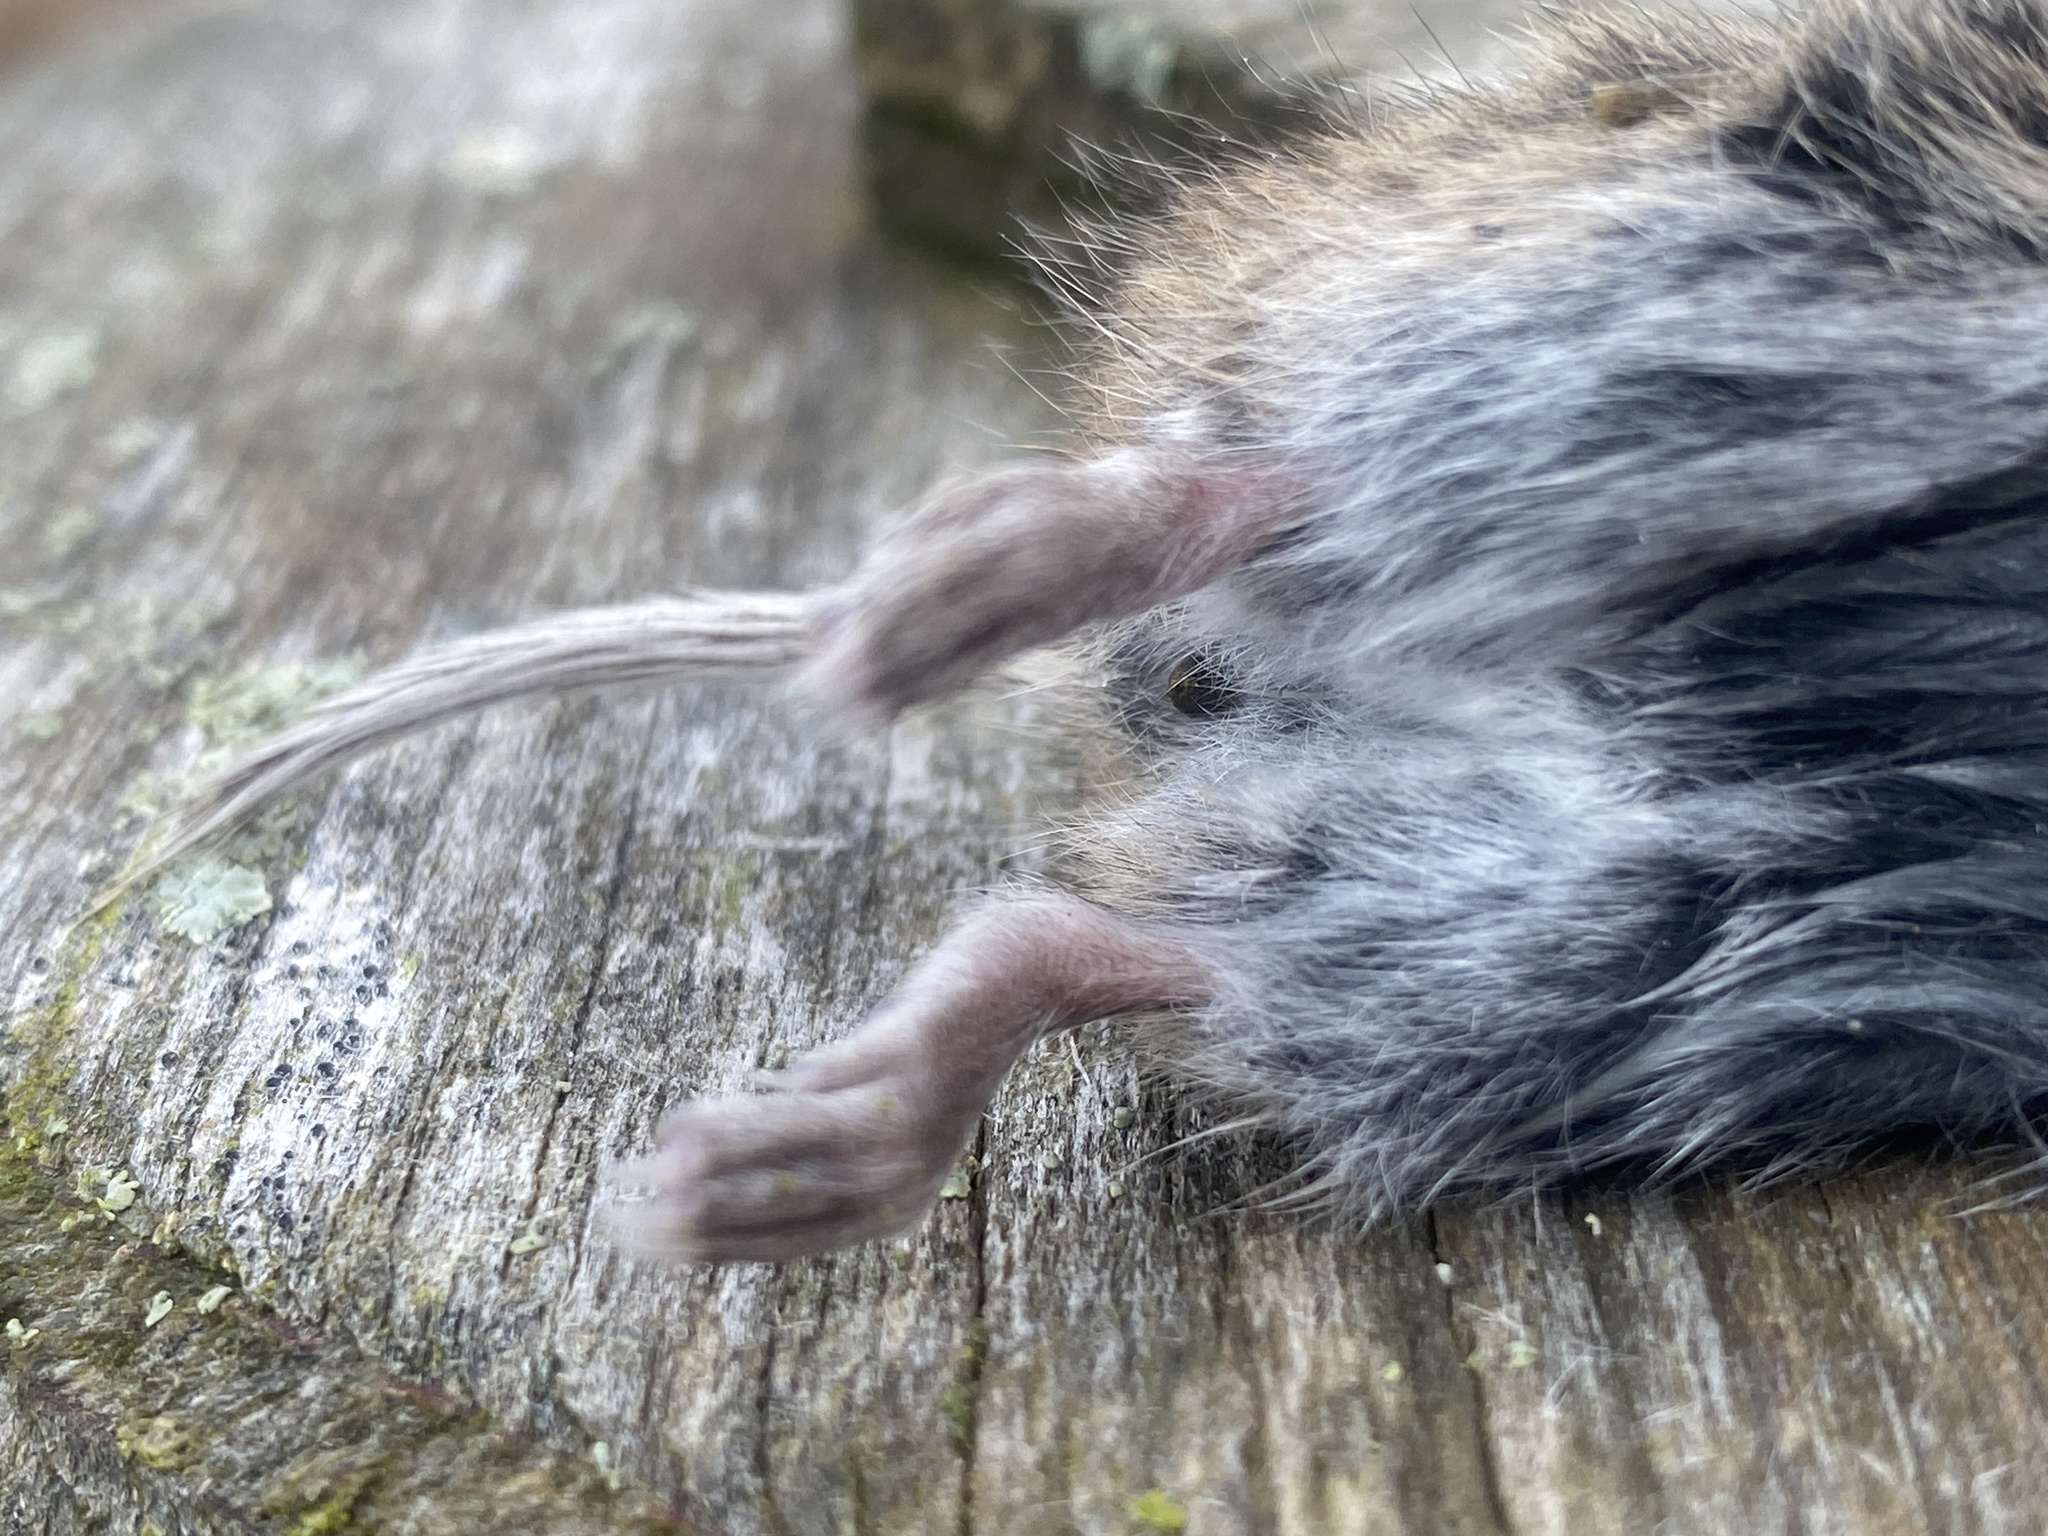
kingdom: Animalia
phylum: Chordata
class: Mammalia
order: Rodentia
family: Cricetidae
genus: Microtus
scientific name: Microtus pennsylvanicus
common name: Meadow vole
